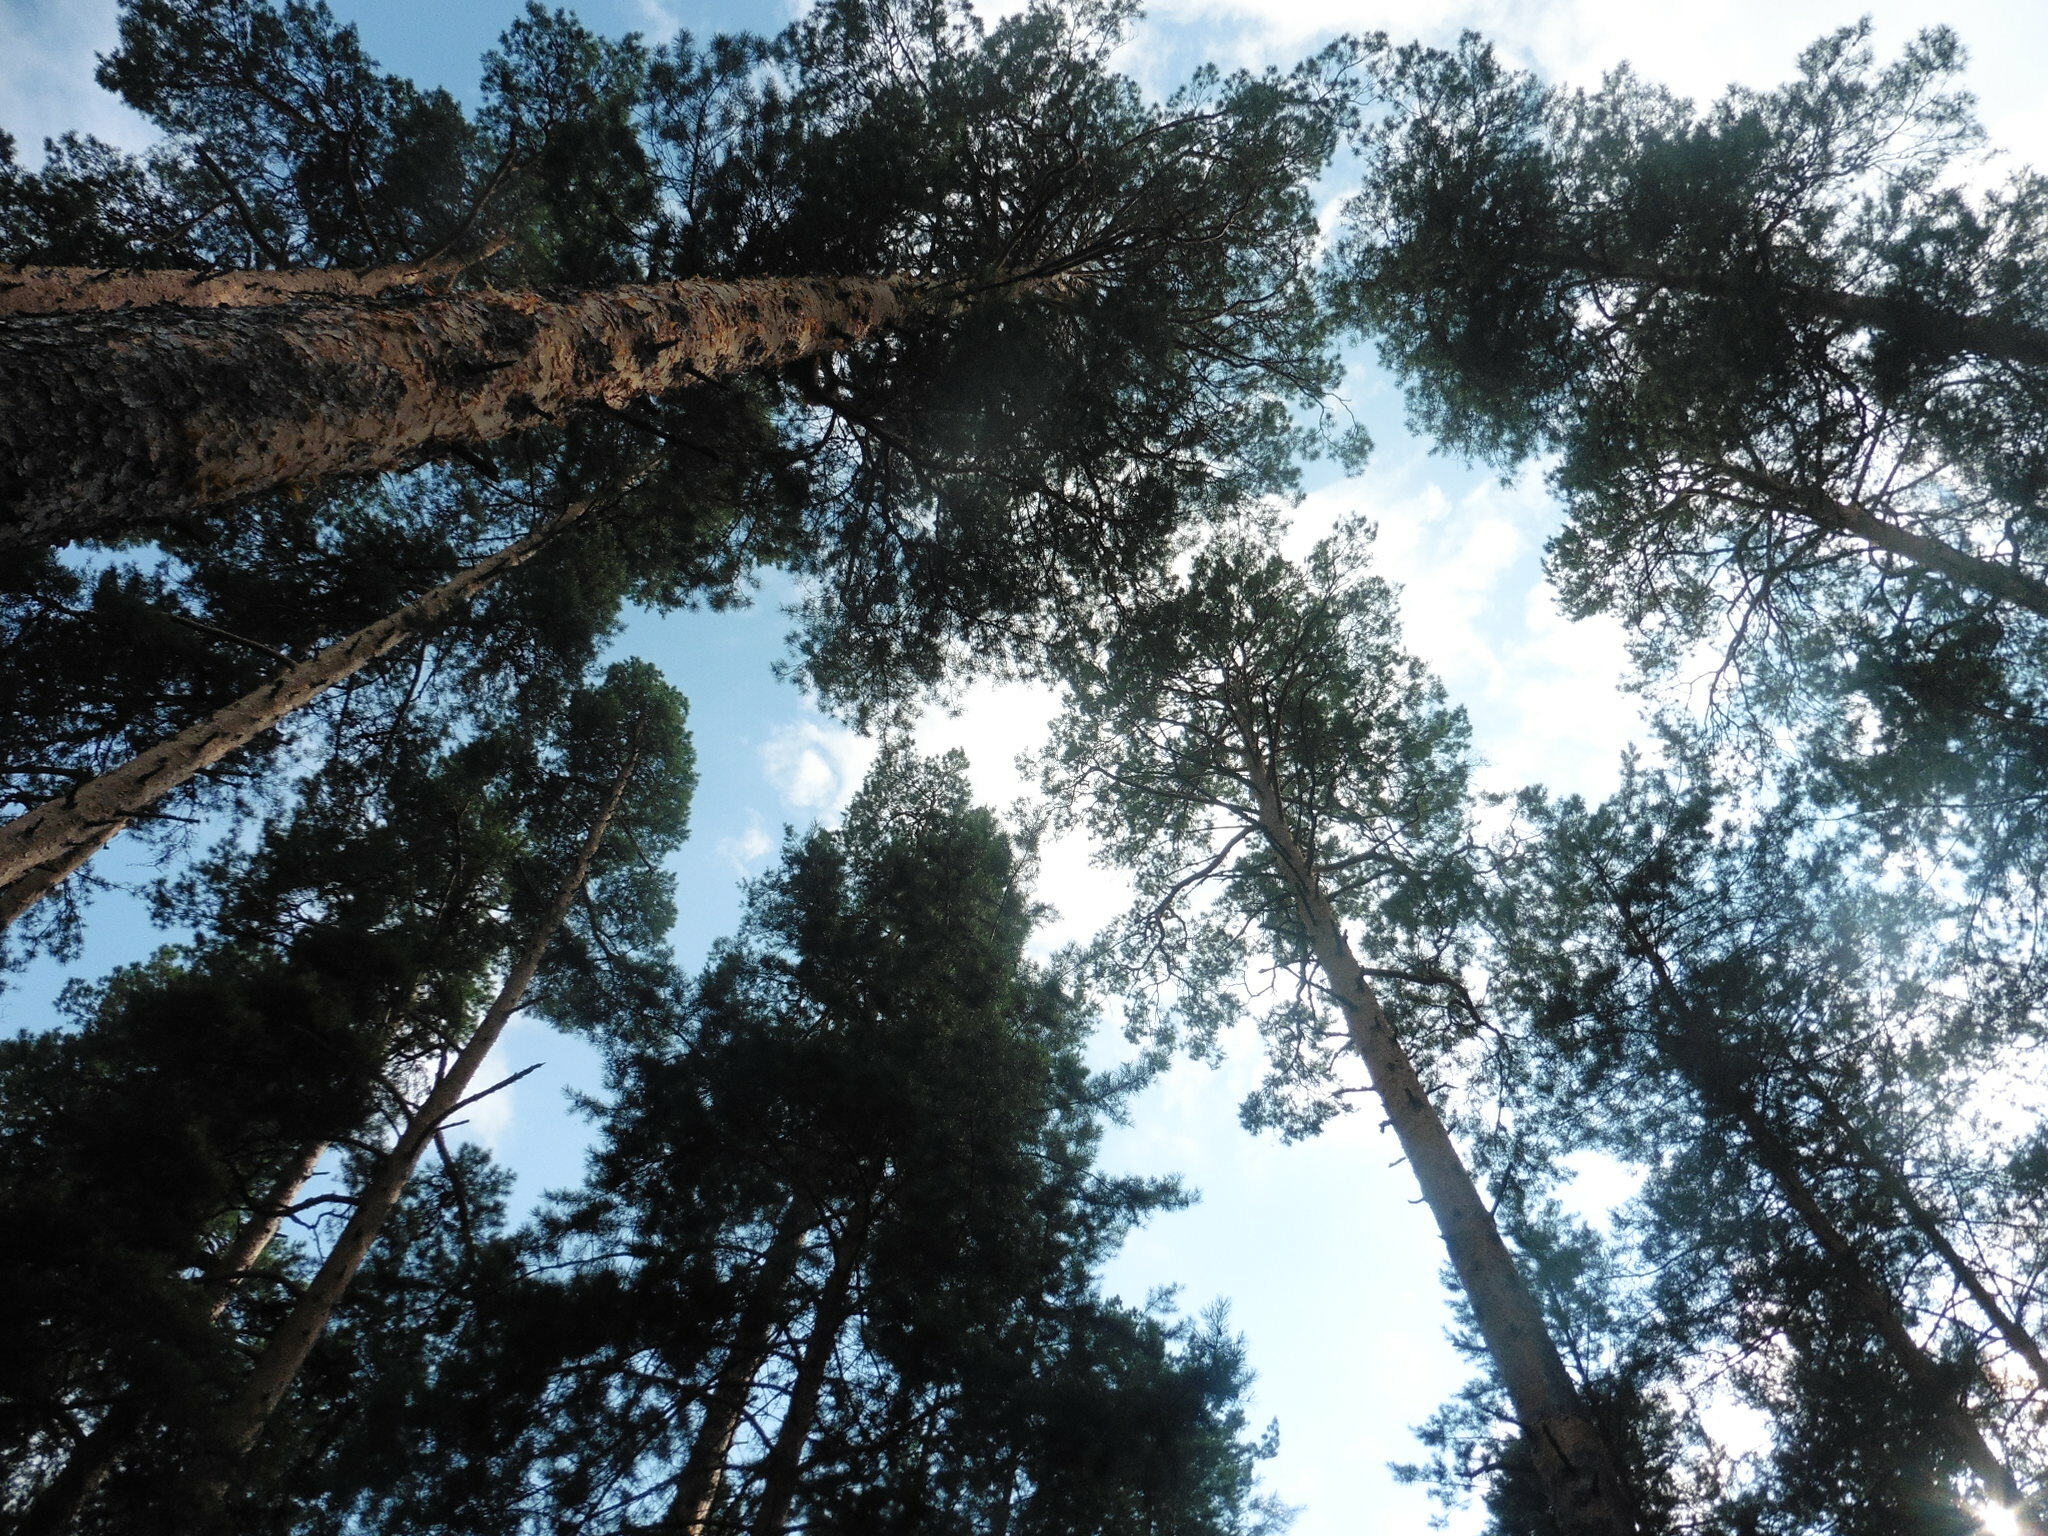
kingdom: Plantae
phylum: Tracheophyta
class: Pinopsida
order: Pinales
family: Pinaceae
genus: Pinus
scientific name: Pinus sylvestris
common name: Scots pine
